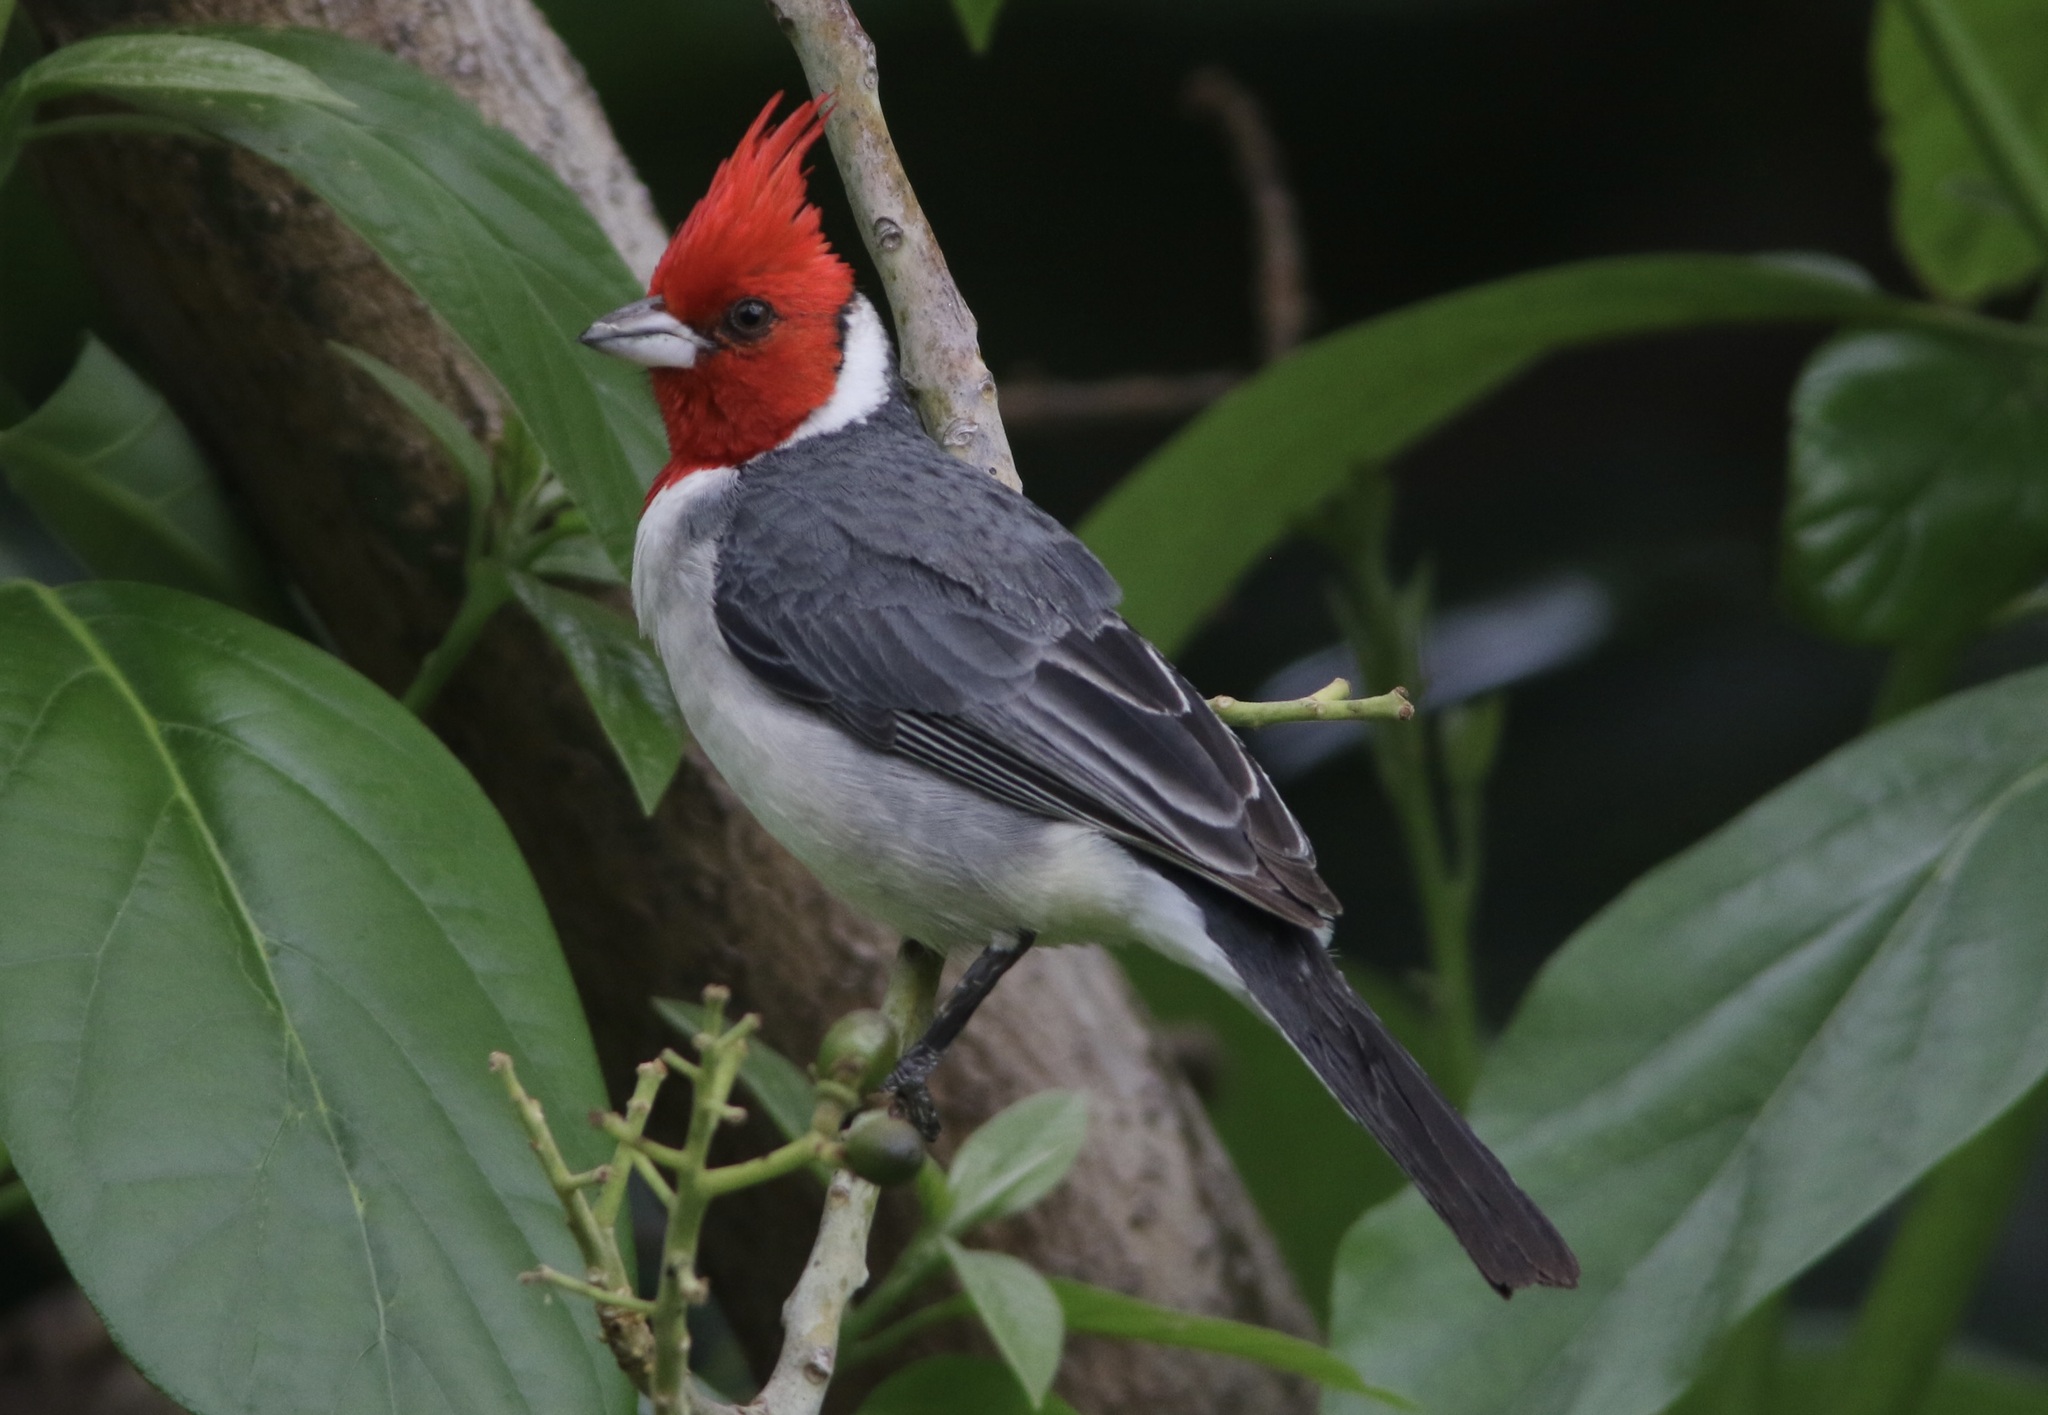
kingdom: Animalia
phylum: Chordata
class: Aves
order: Passeriformes
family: Thraupidae
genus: Paroaria
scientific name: Paroaria coronata
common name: Red-crested cardinal
